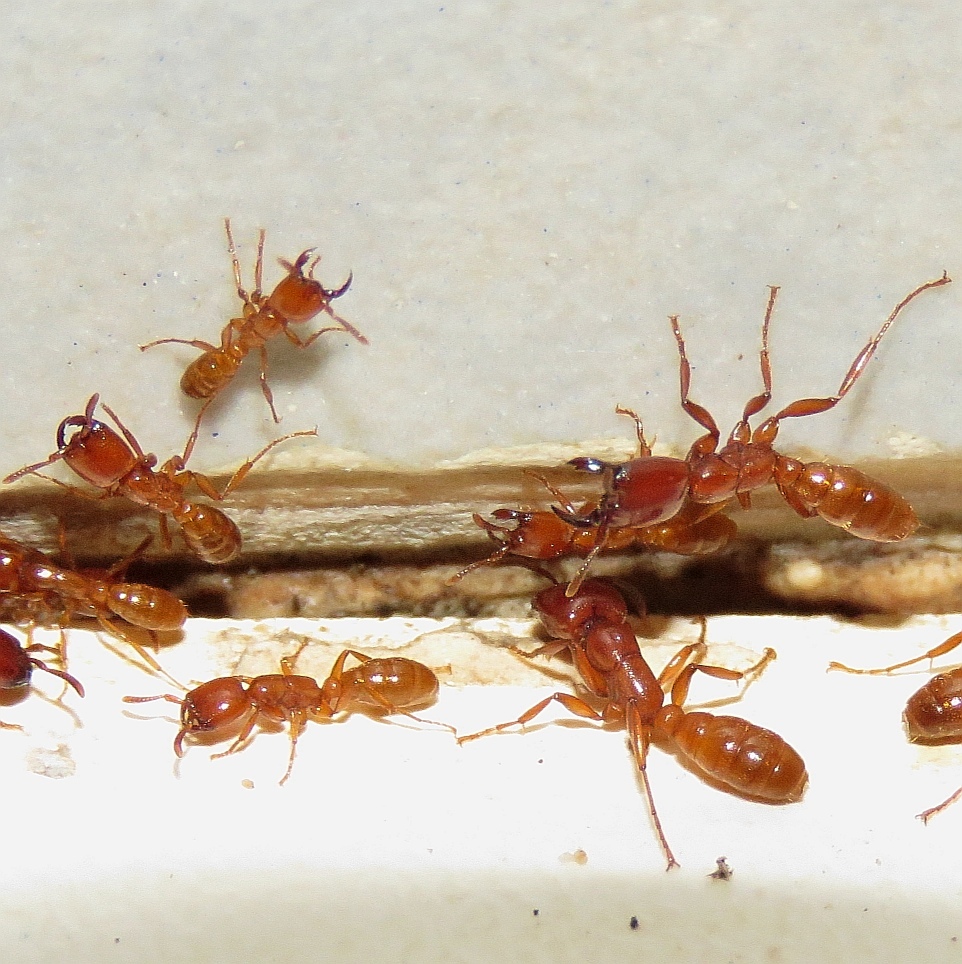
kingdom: Animalia
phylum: Arthropoda
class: Insecta
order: Hymenoptera
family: Formicidae
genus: Dorylus
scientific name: Dorylus helvolus
